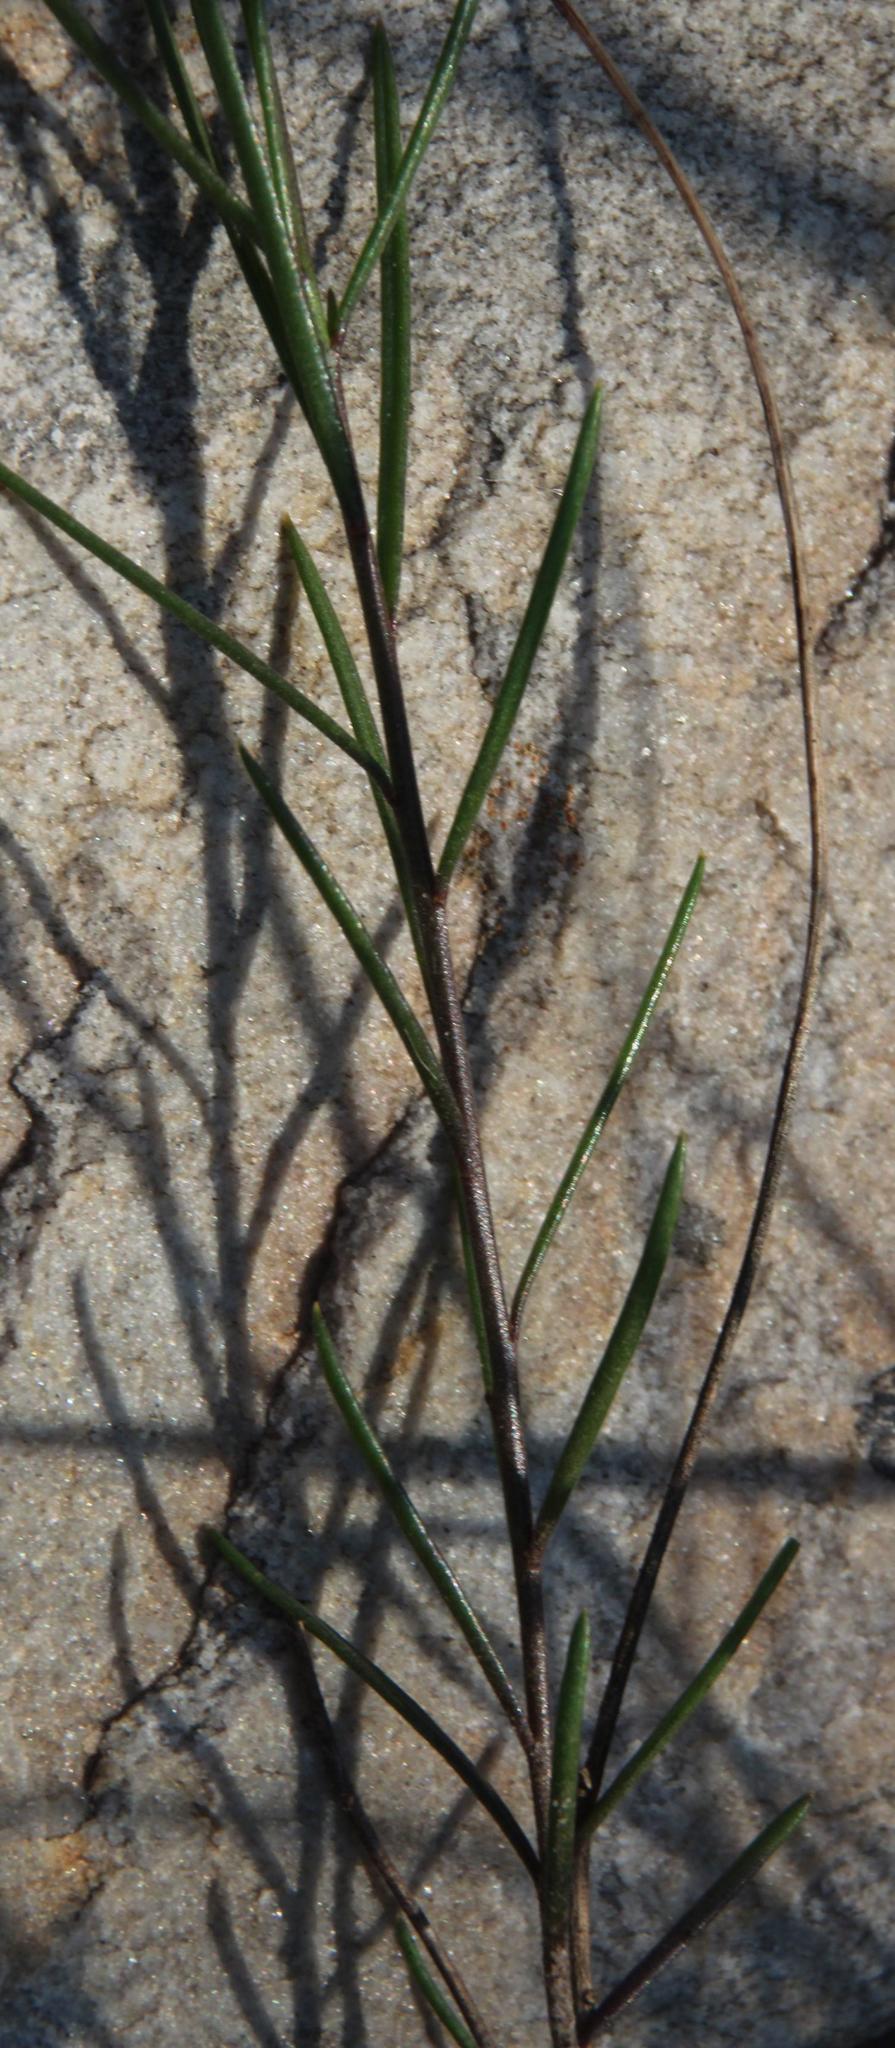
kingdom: Plantae
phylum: Tracheophyta
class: Magnoliopsida
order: Brassicales
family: Brassicaceae
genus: Heliophila
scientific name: Heliophila subulata
